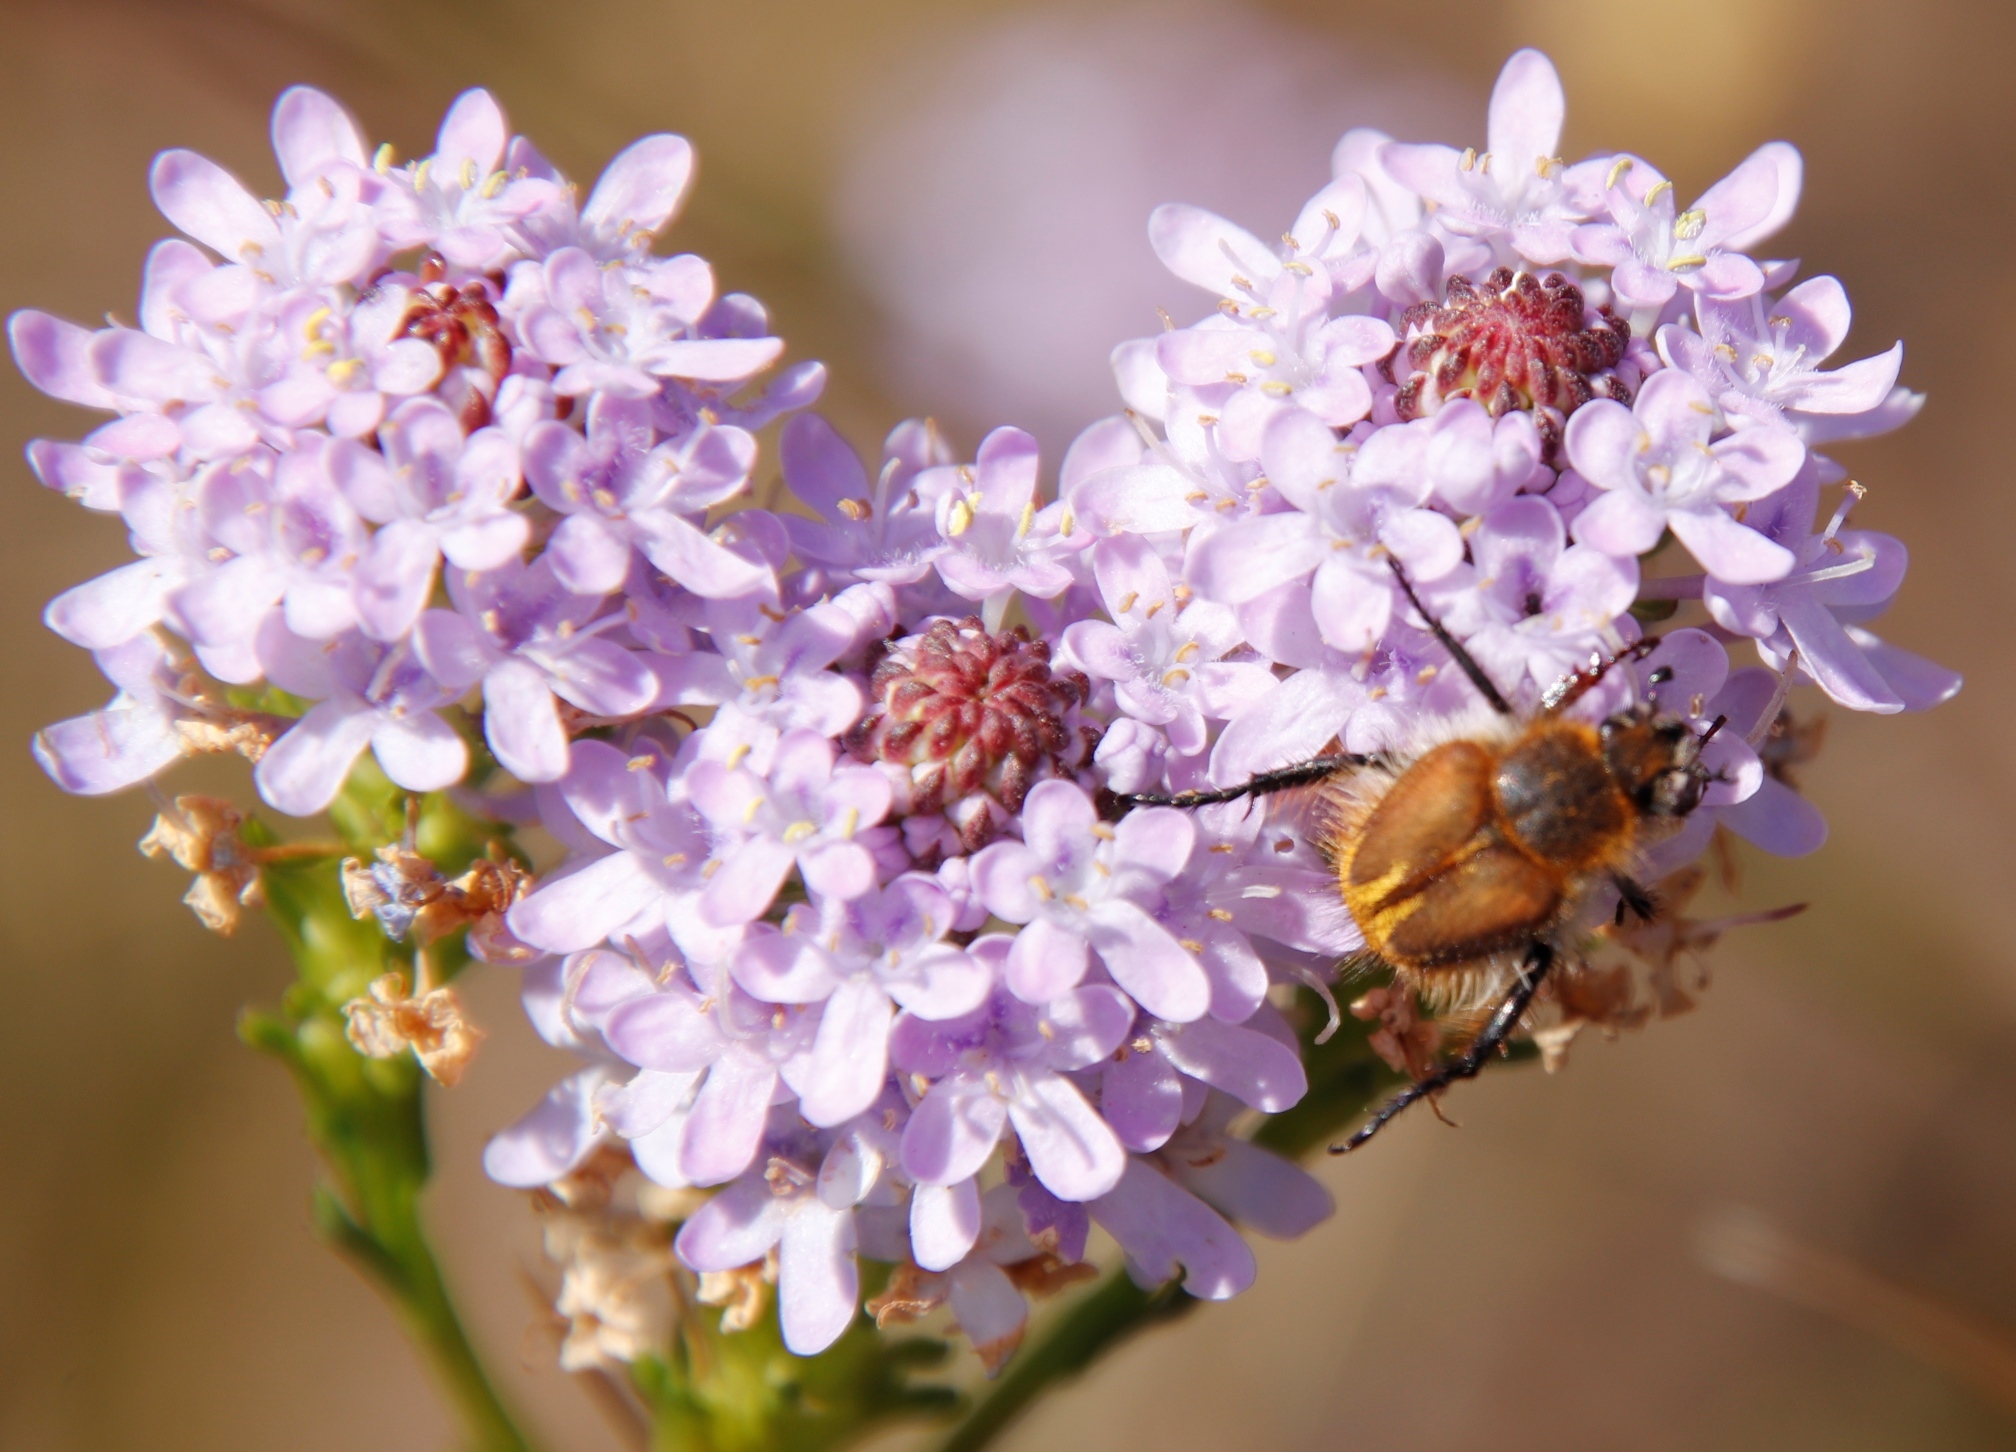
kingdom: Plantae
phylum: Tracheophyta
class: Magnoliopsida
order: Lamiales
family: Scrophulariaceae
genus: Pseudoselago
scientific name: Pseudoselago spuria
